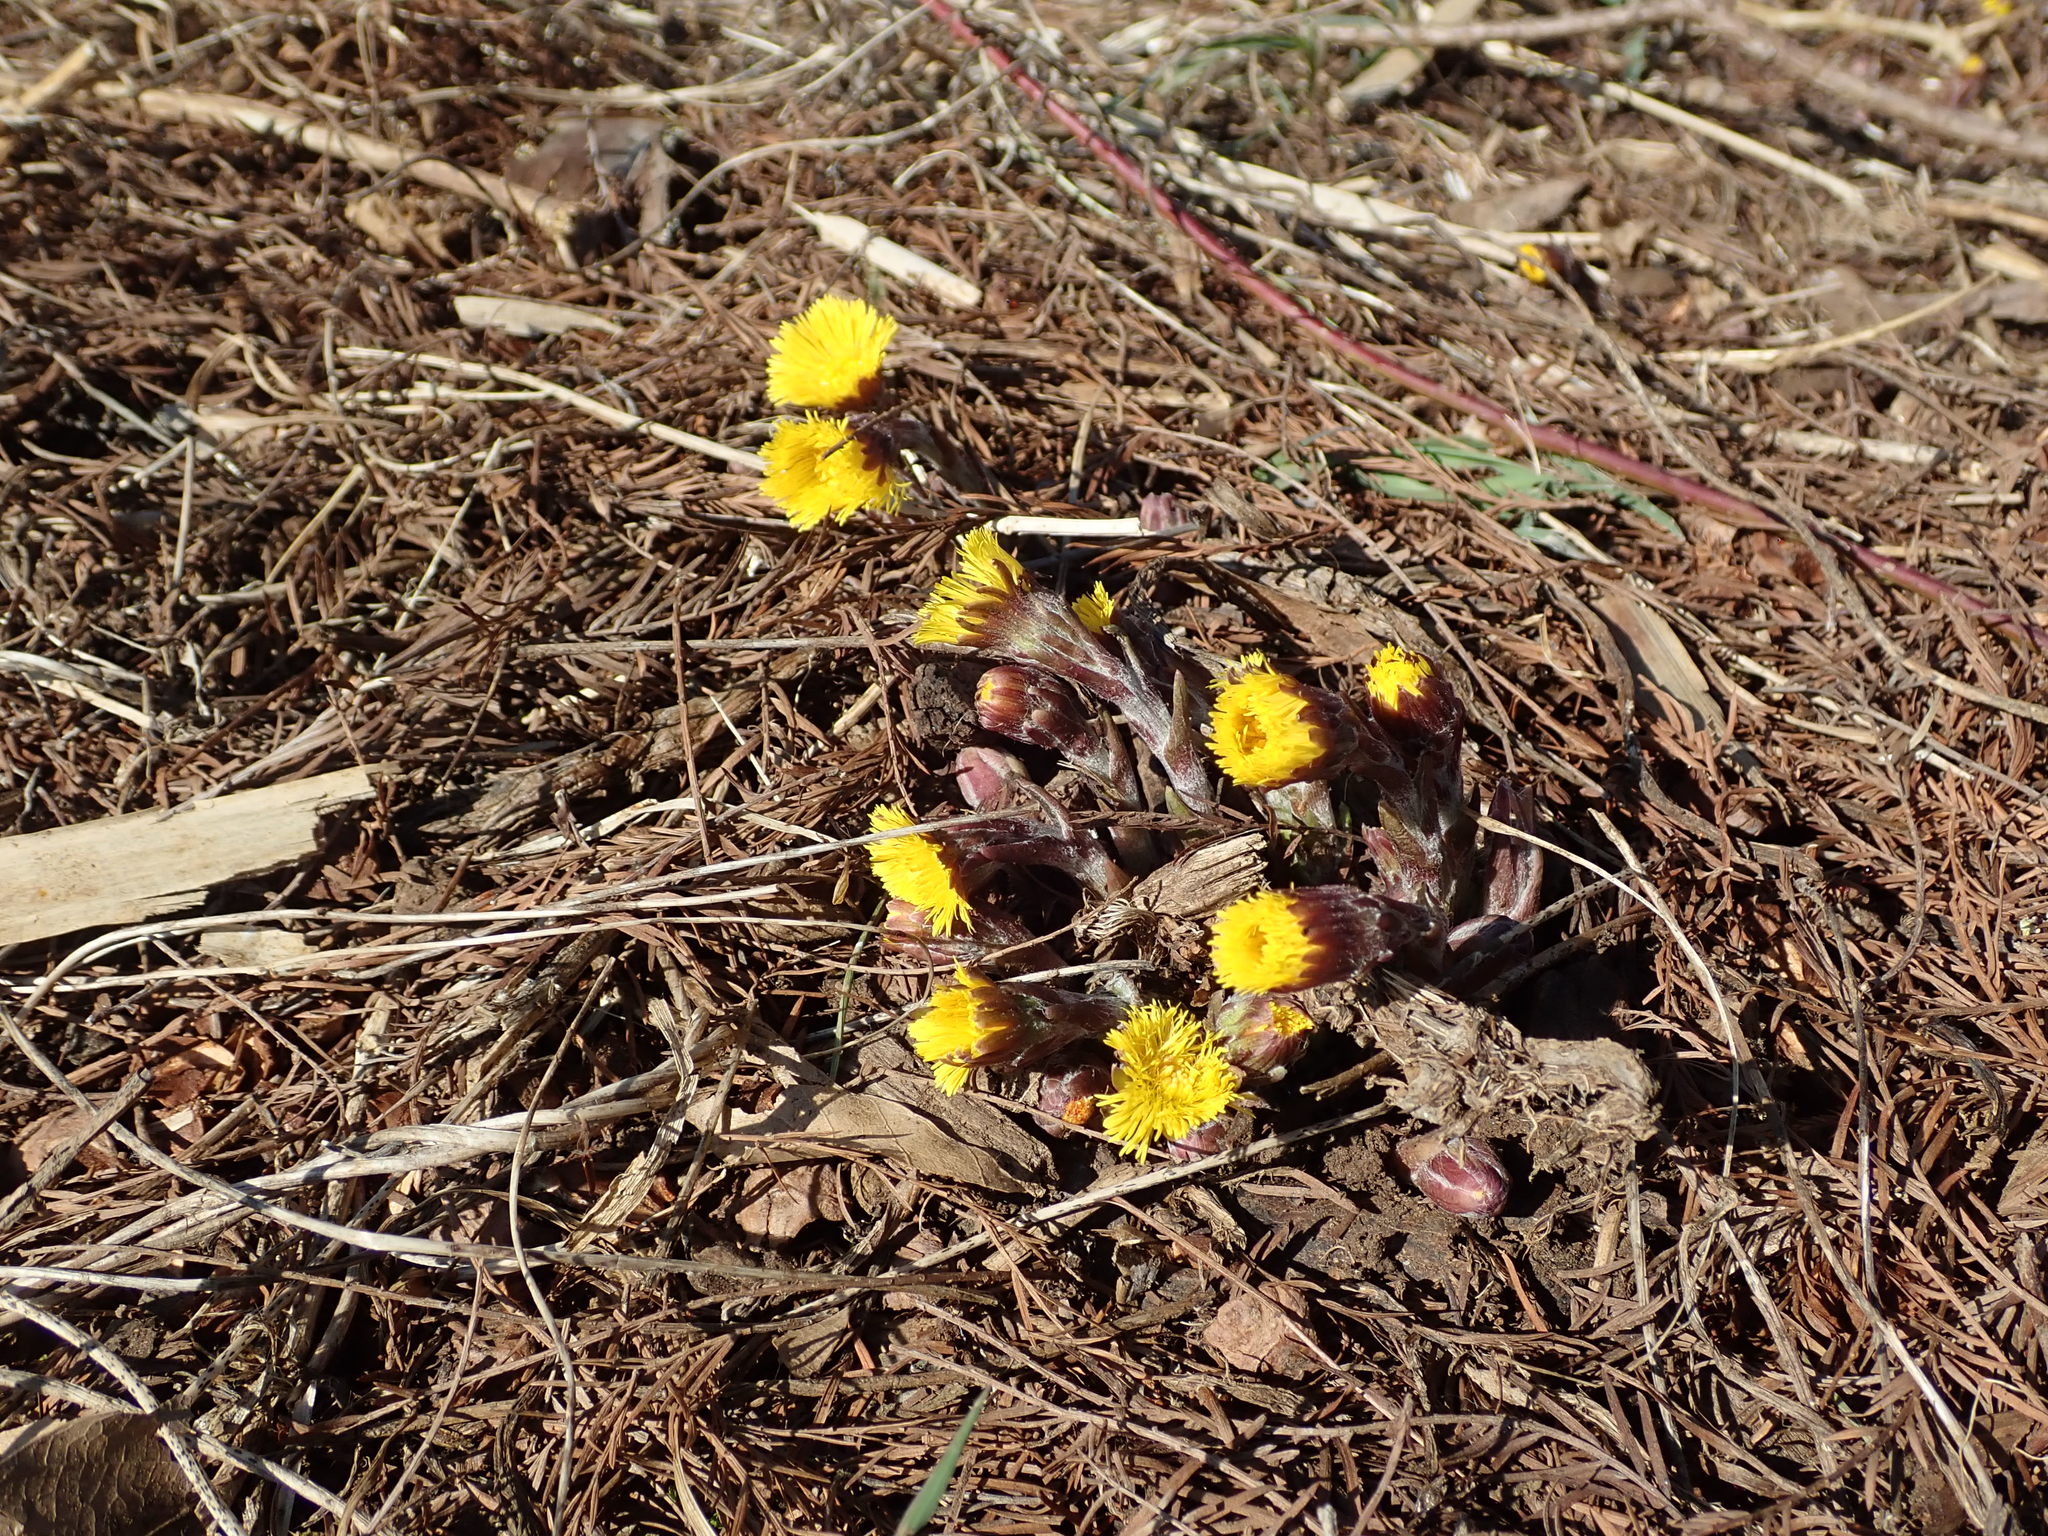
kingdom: Plantae
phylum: Tracheophyta
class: Magnoliopsida
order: Asterales
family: Asteraceae
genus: Tussilago
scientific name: Tussilago farfara
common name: Coltsfoot
